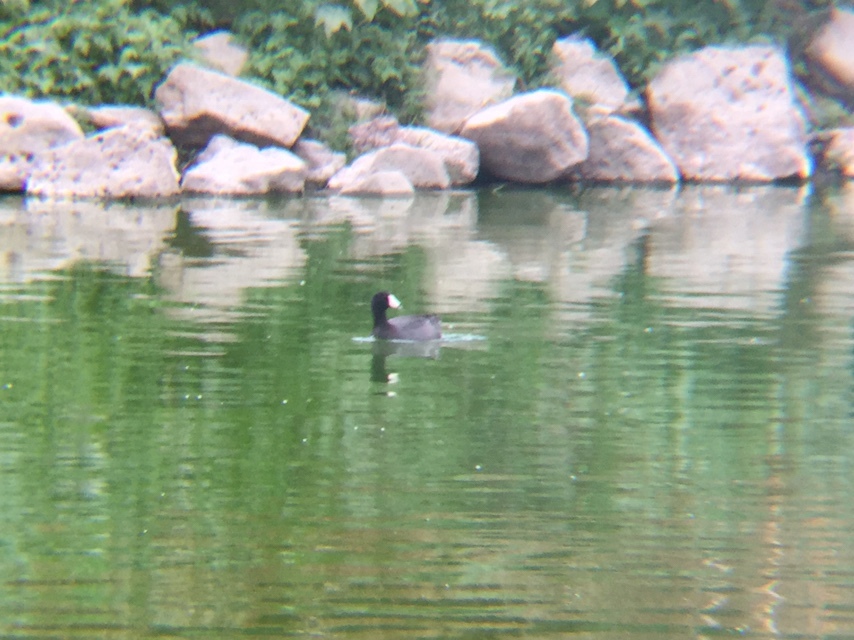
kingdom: Animalia
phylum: Chordata
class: Aves
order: Gruiformes
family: Rallidae
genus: Fulica
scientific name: Fulica americana
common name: American coot
